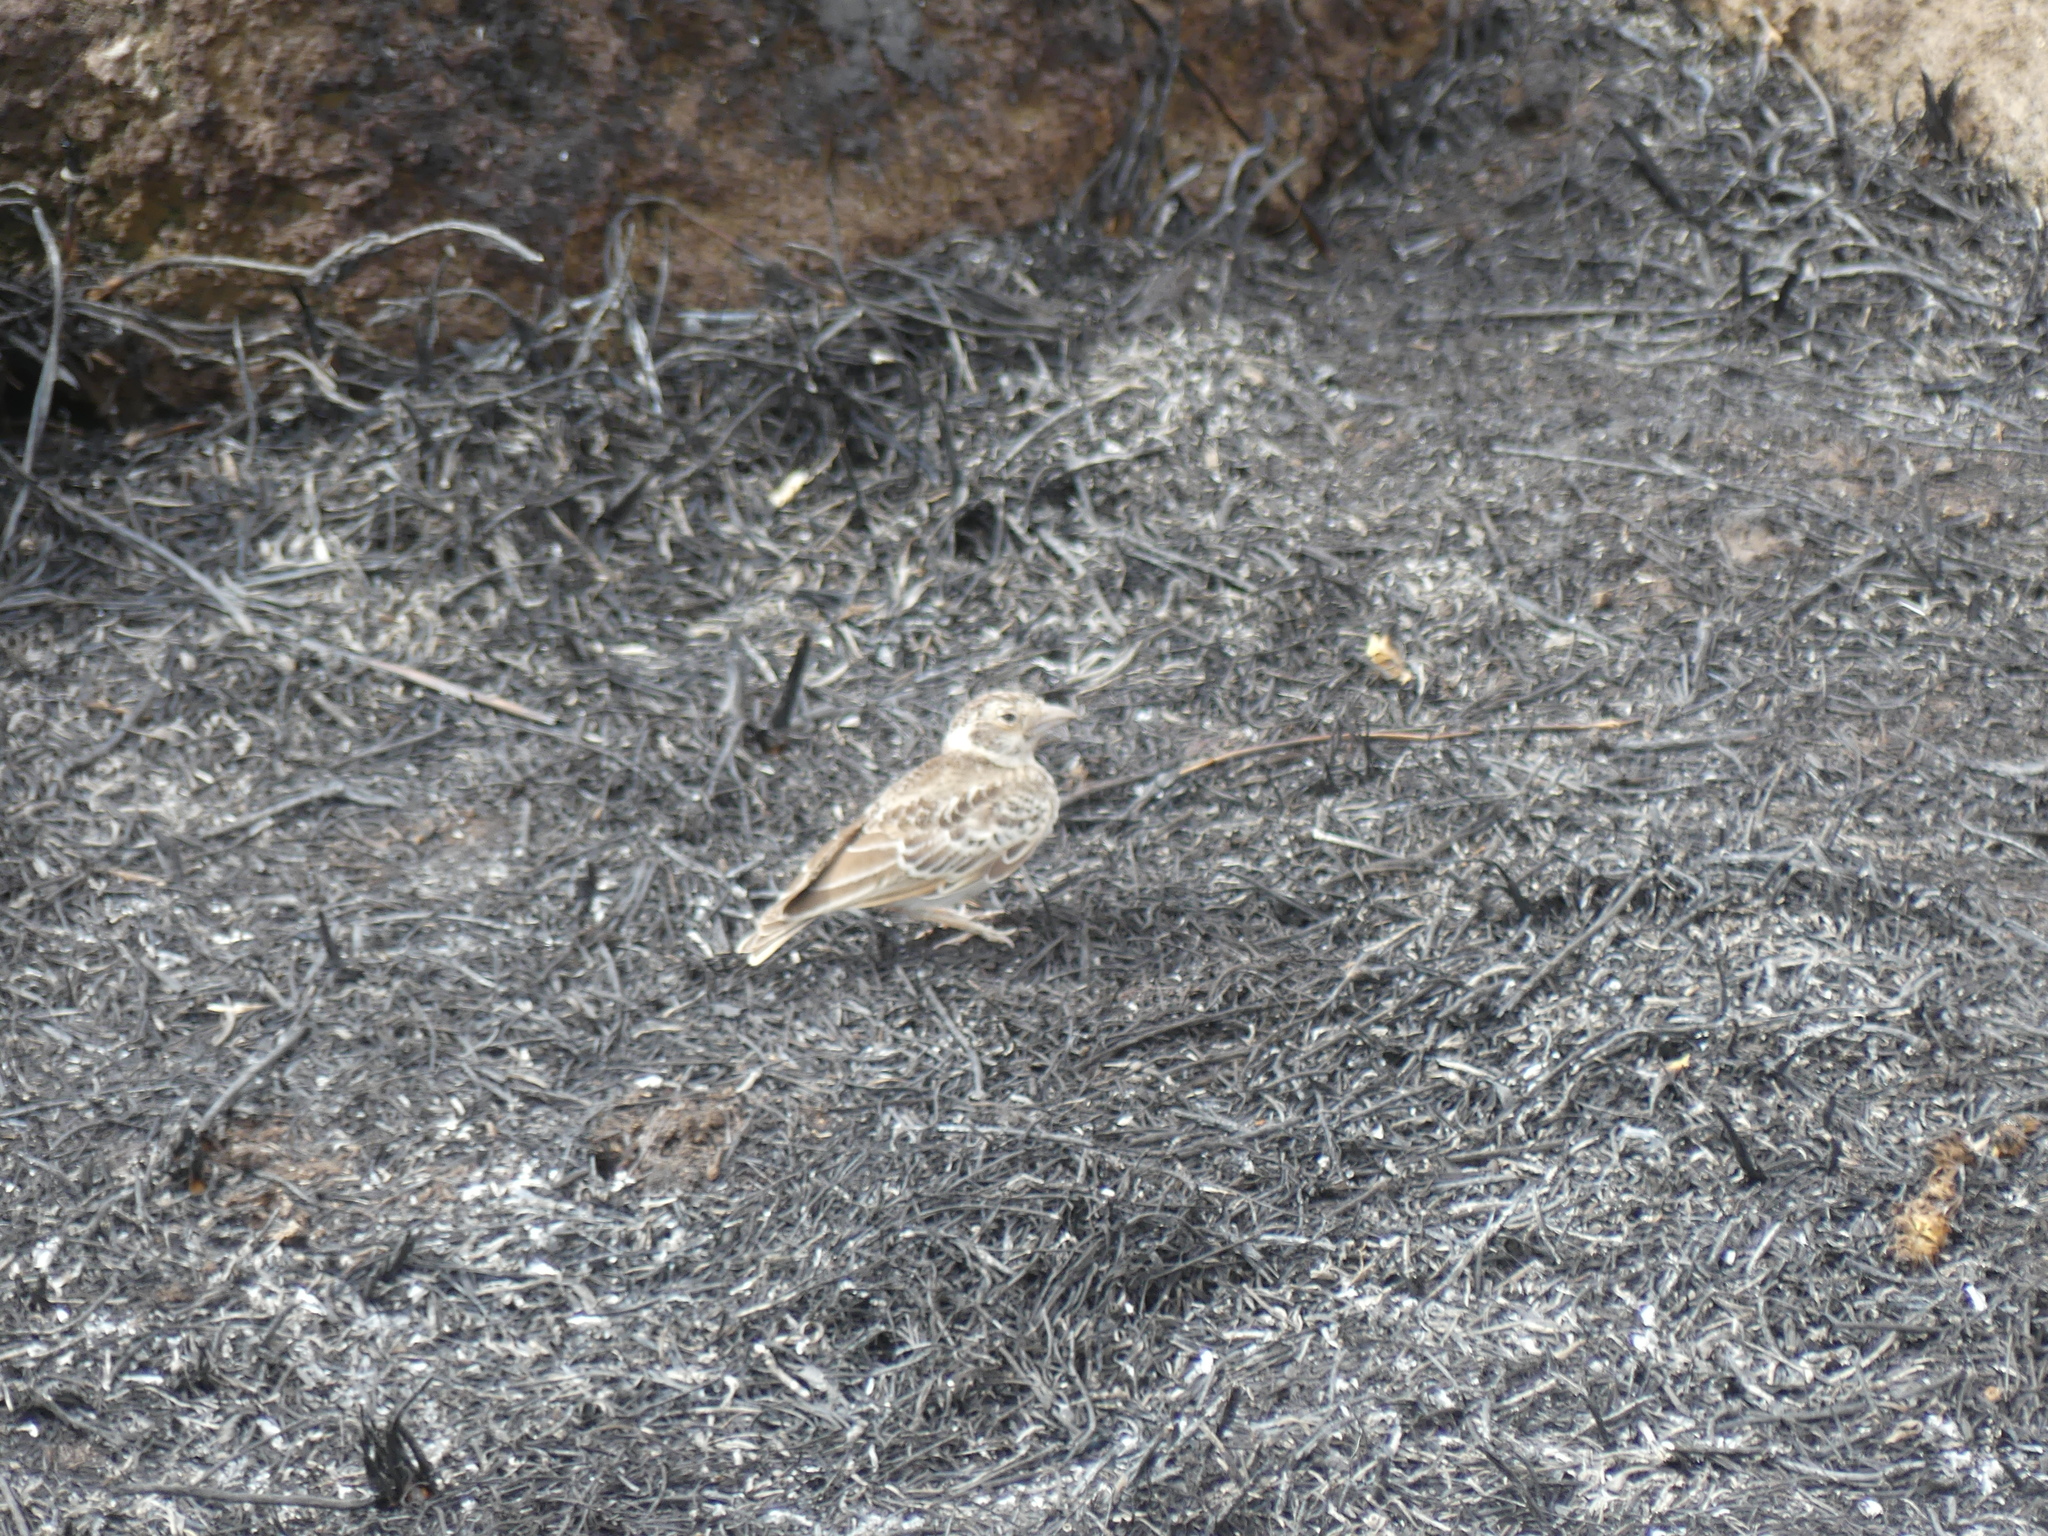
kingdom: Animalia
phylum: Chordata
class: Aves
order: Passeriformes
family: Alaudidae
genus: Eremopterix
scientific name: Eremopterix leucopareia
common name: Fischer's sparrow-lark
